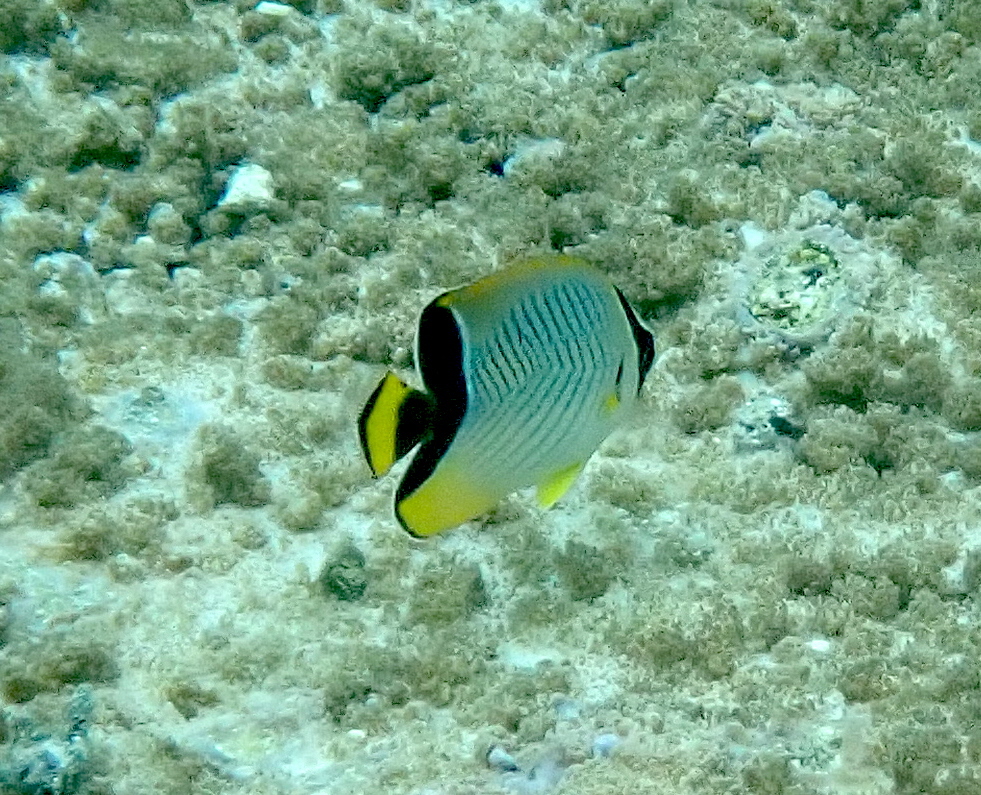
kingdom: Animalia
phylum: Chordata
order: Perciformes
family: Chaetodontidae
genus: Chaetodon
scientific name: Chaetodon trifascialis
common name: Chevroned butterflyfish
